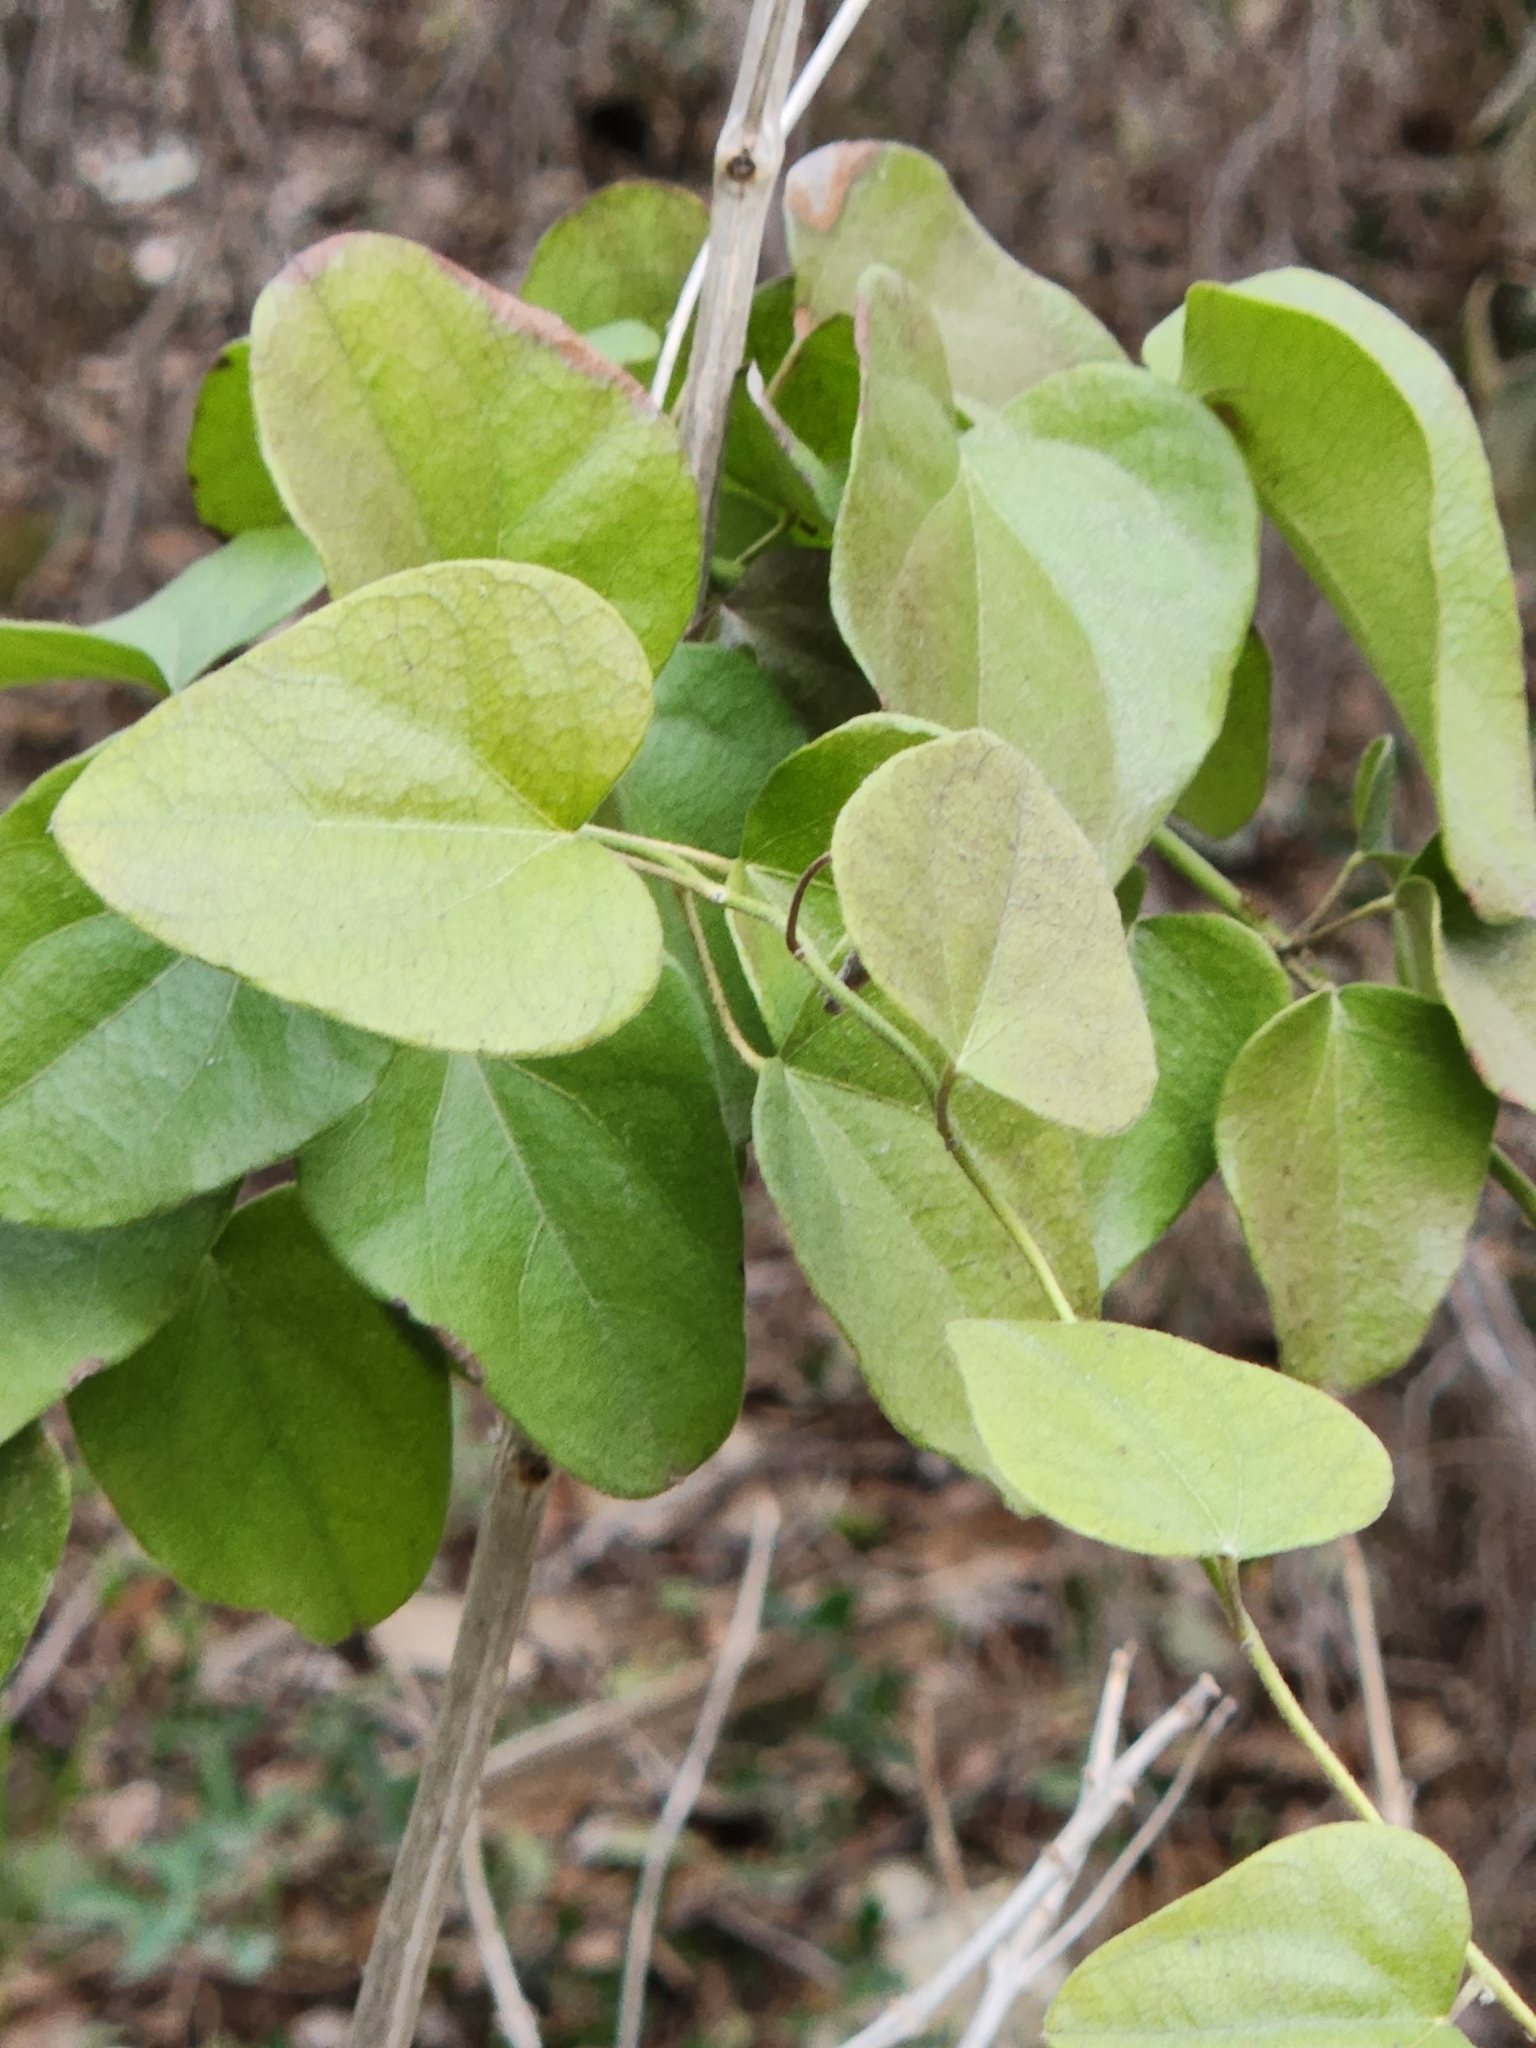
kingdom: Plantae
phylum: Tracheophyta
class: Magnoliopsida
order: Ranunculales
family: Menispermaceae
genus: Cocculus
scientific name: Cocculus carolinus
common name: Carolina moonseed
